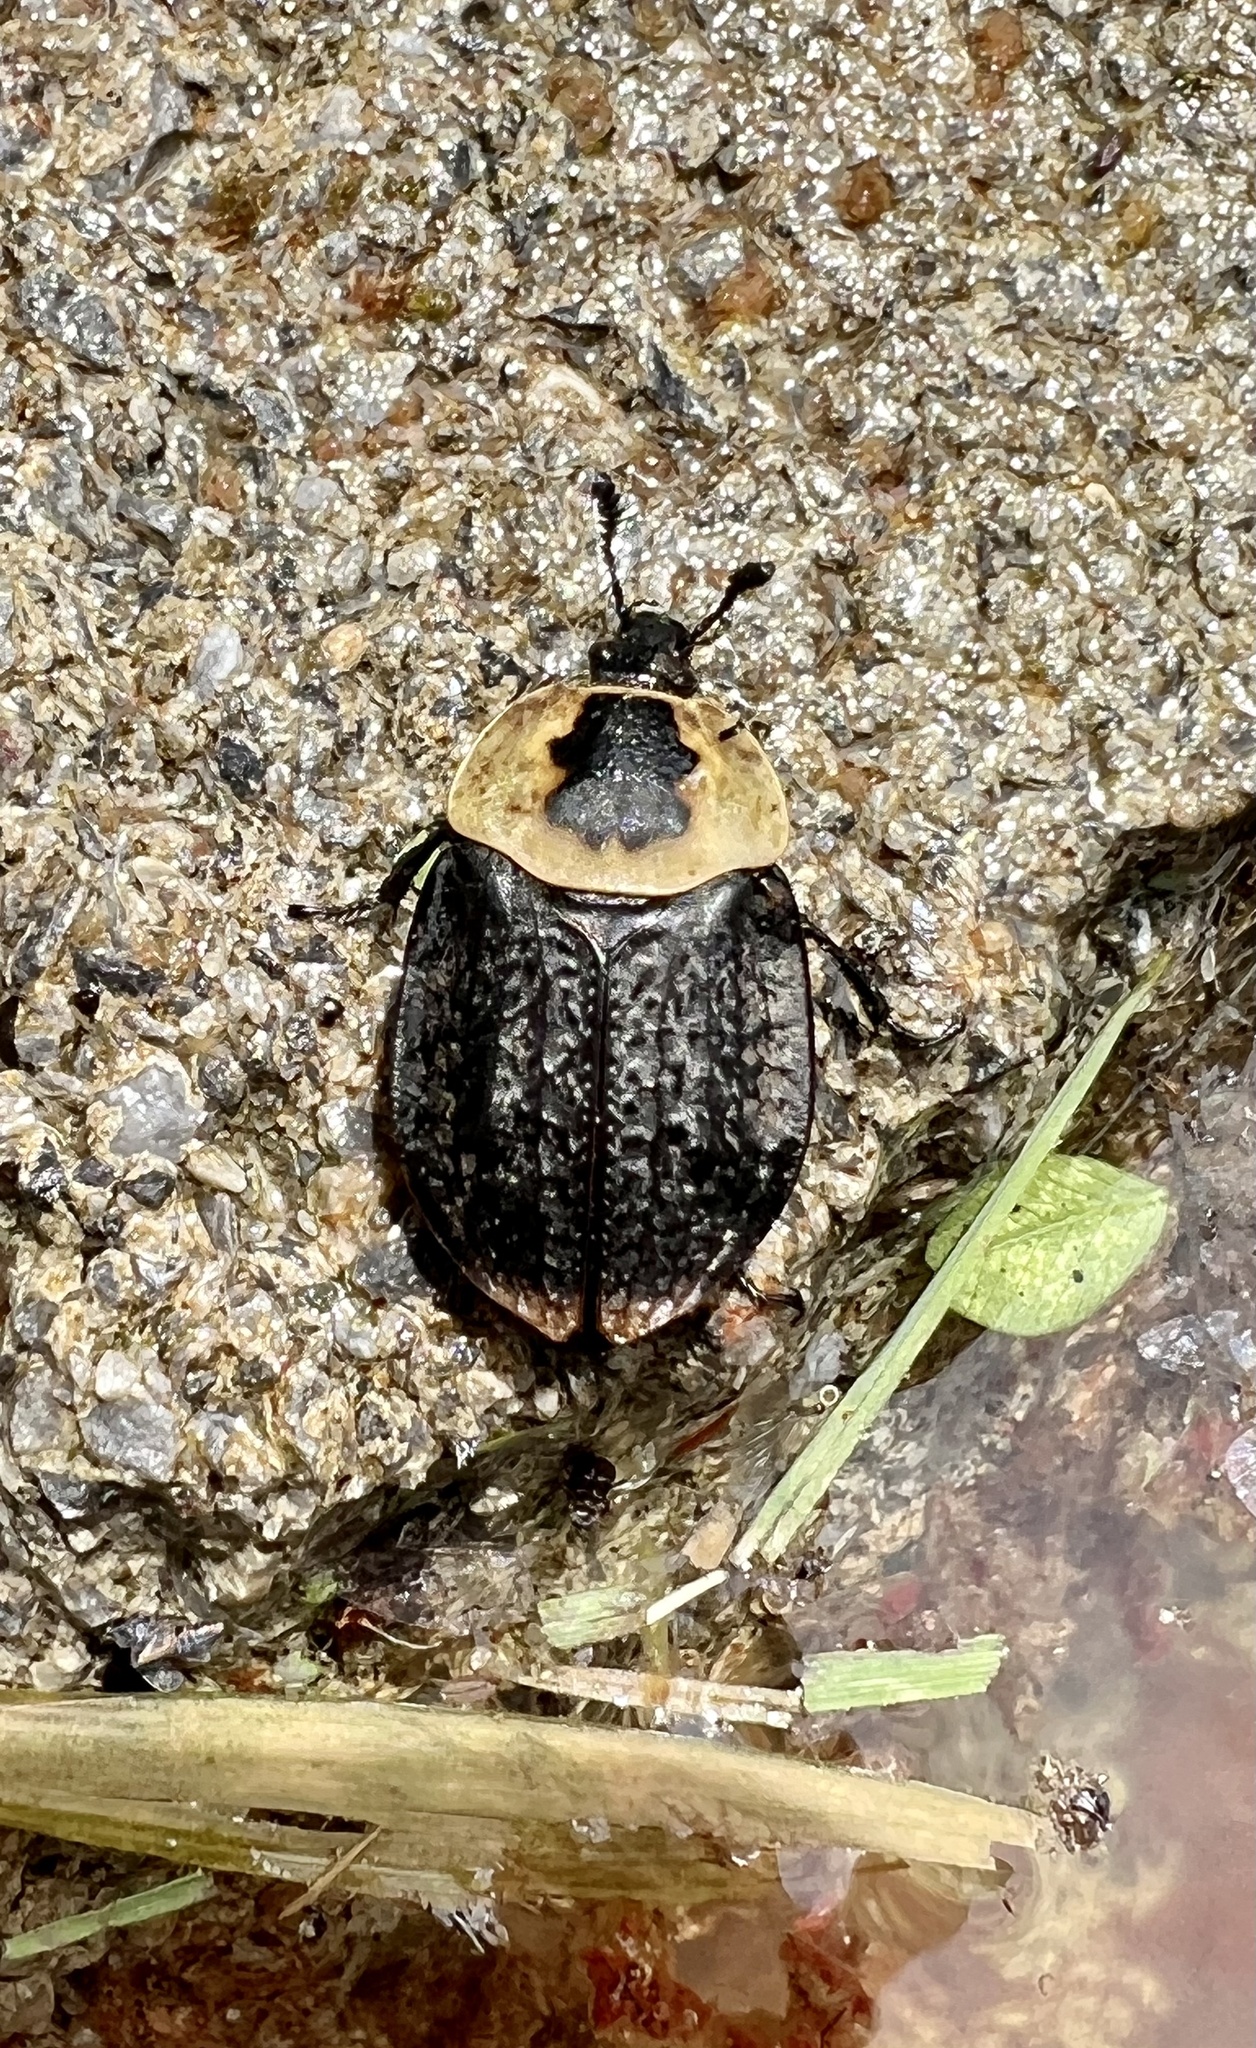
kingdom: Animalia
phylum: Arthropoda
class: Insecta
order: Coleoptera
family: Staphylinidae
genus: Necrophila
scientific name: Necrophila americana
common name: American carrion beetle
